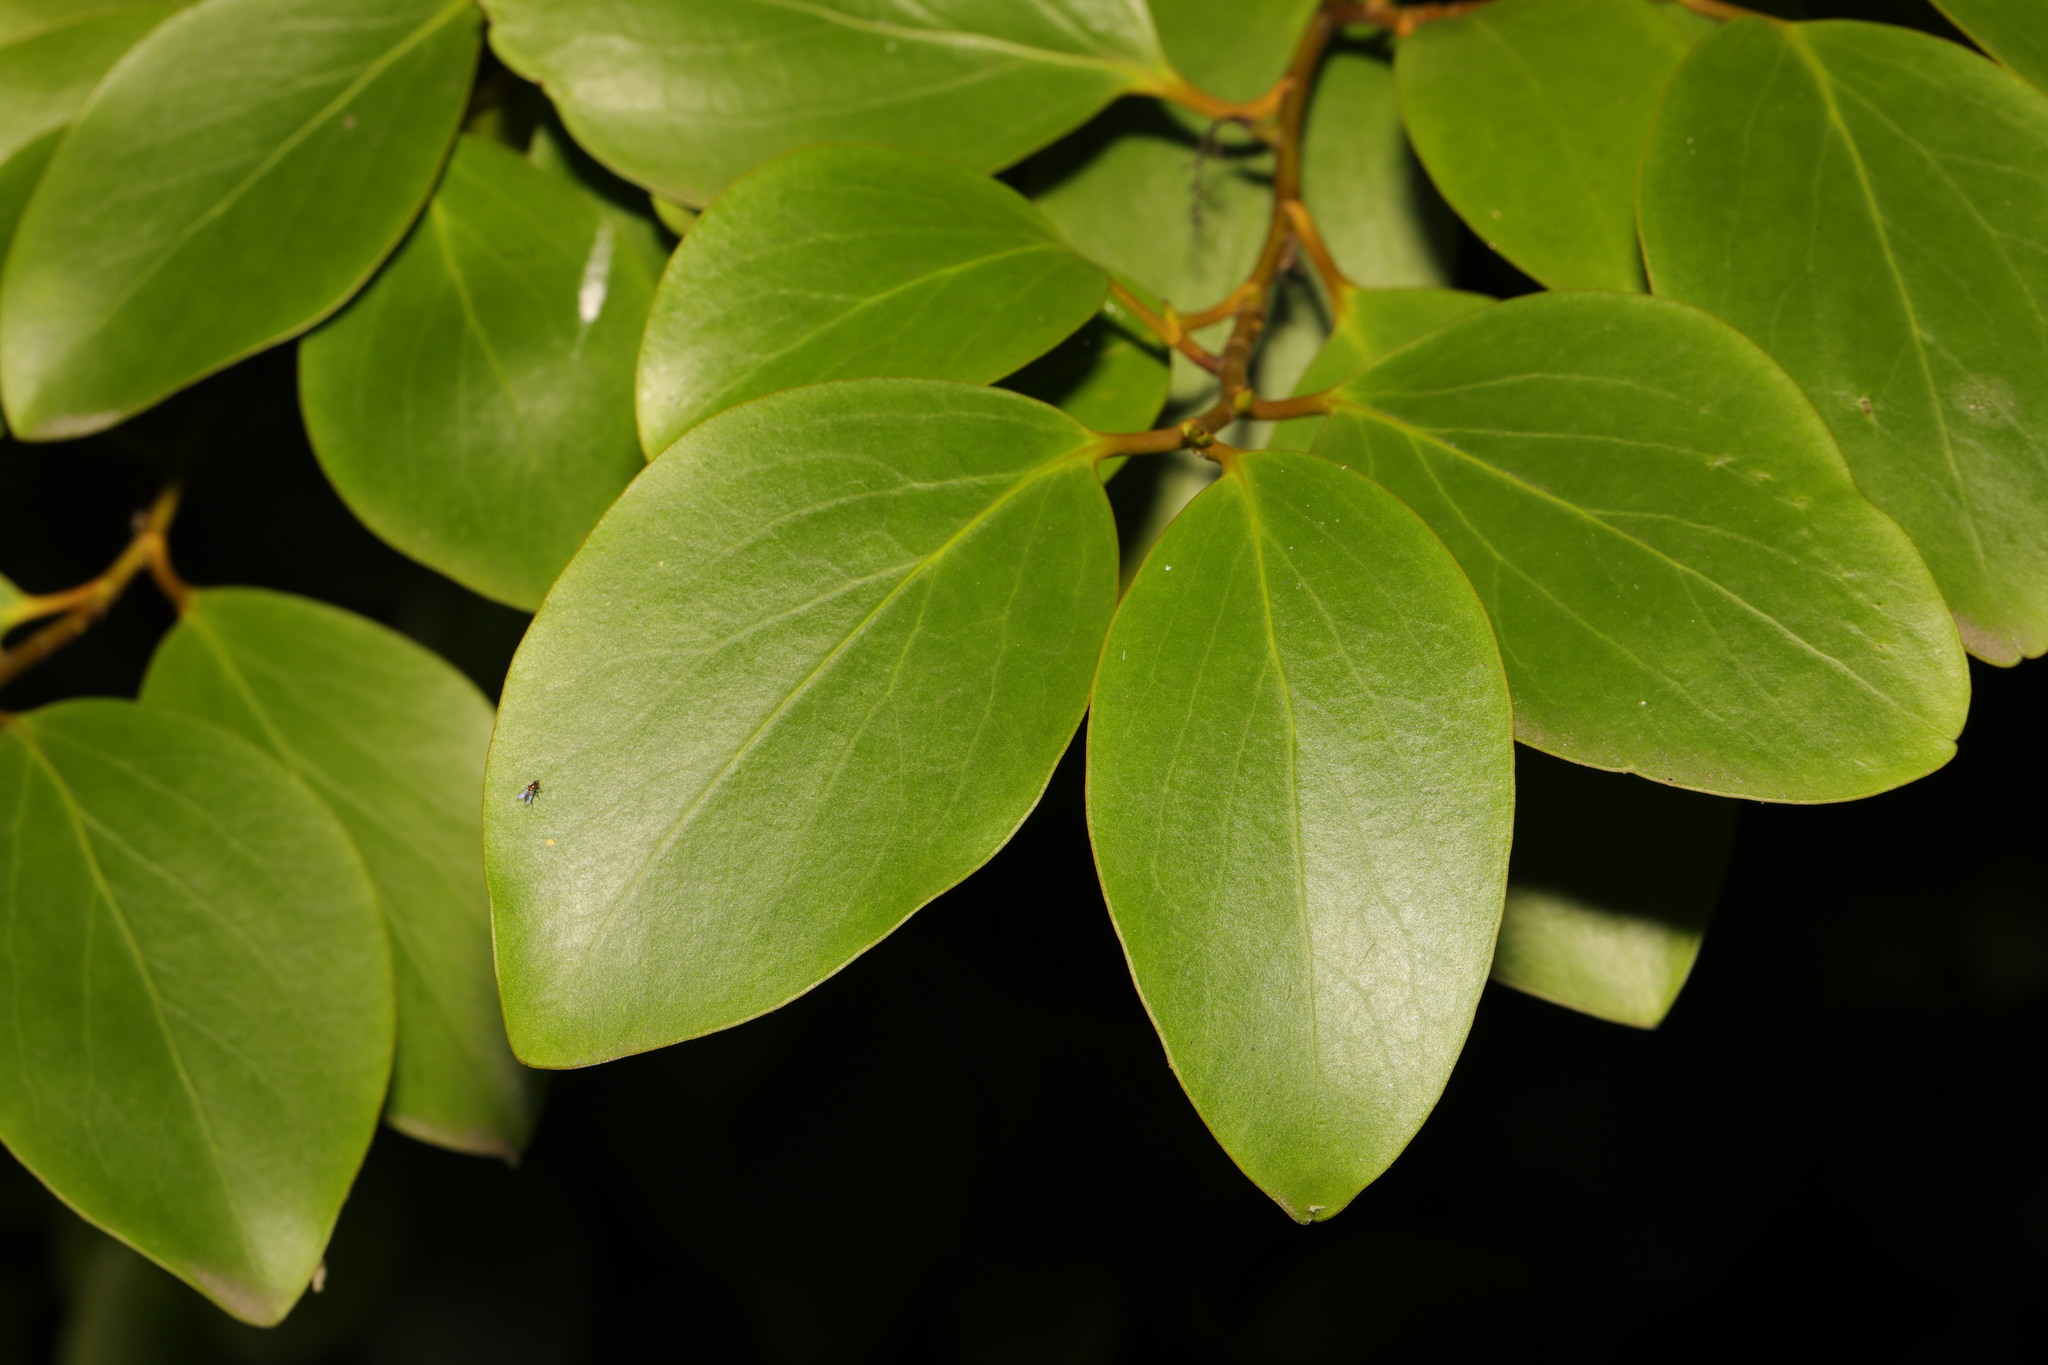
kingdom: Plantae
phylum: Tracheophyta
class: Magnoliopsida
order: Apiales
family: Griseliniaceae
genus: Griselinia
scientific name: Griselinia littoralis
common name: New zealand broadleaf
